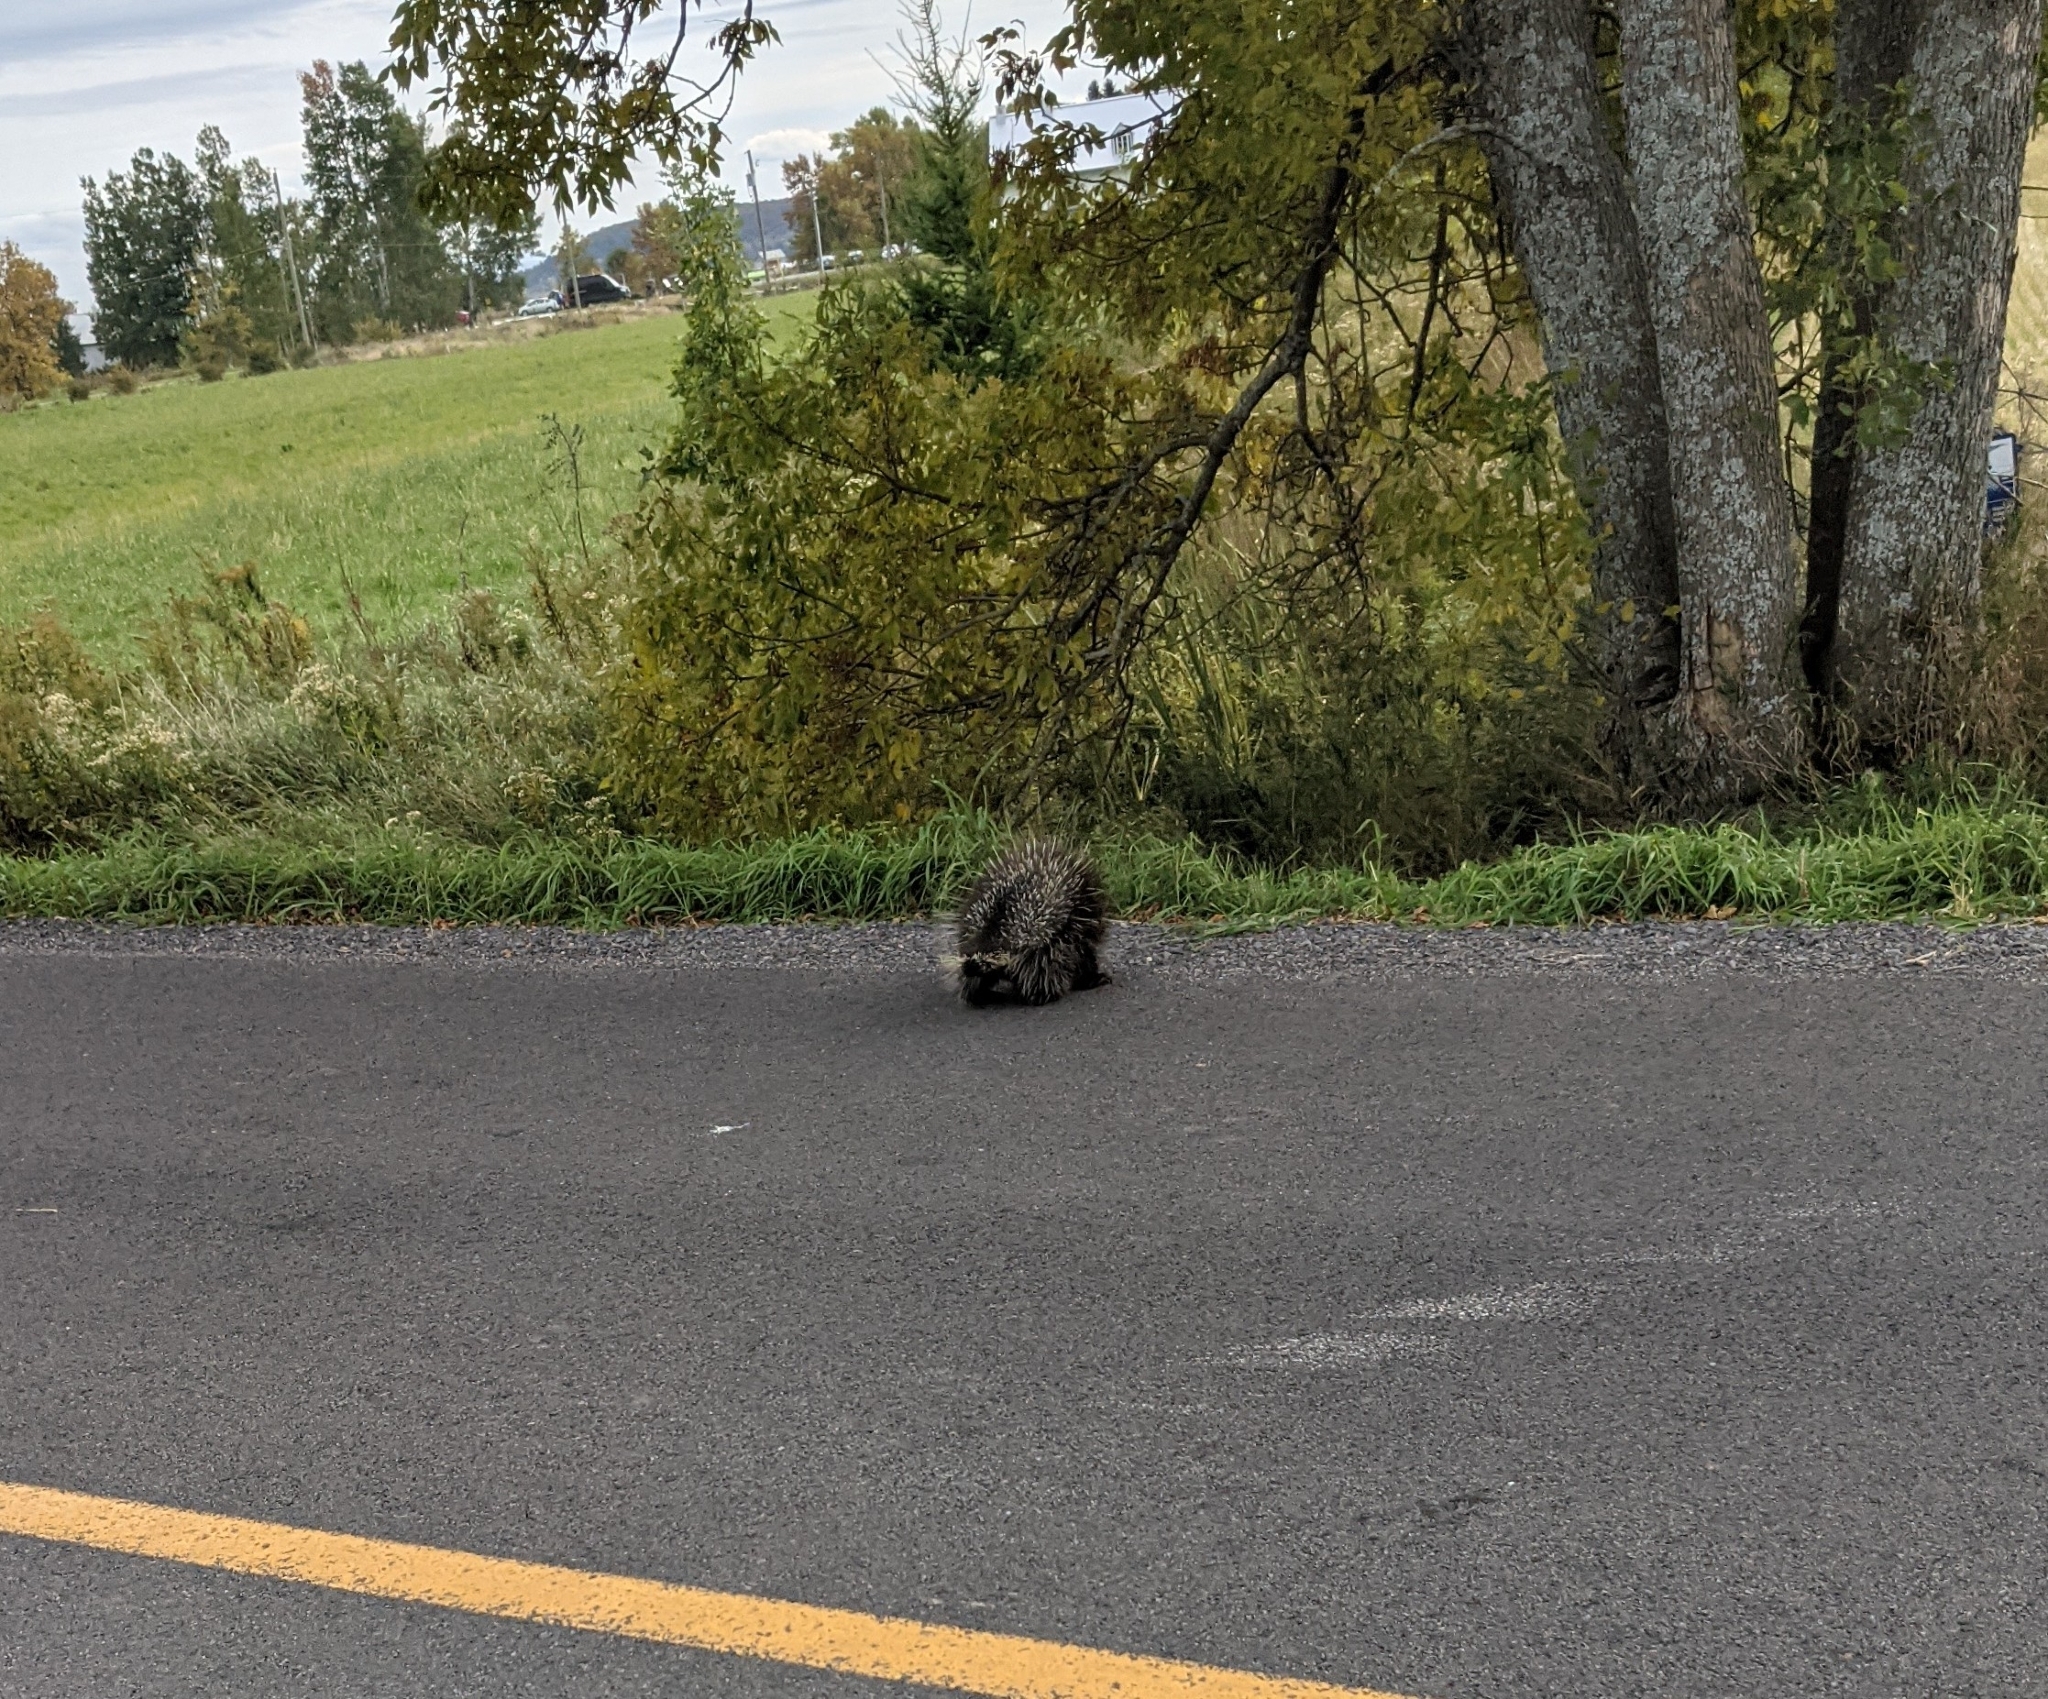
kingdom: Animalia
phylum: Chordata
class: Mammalia
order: Rodentia
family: Erethizontidae
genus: Erethizon
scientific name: Erethizon dorsatus
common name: North american porcupine
